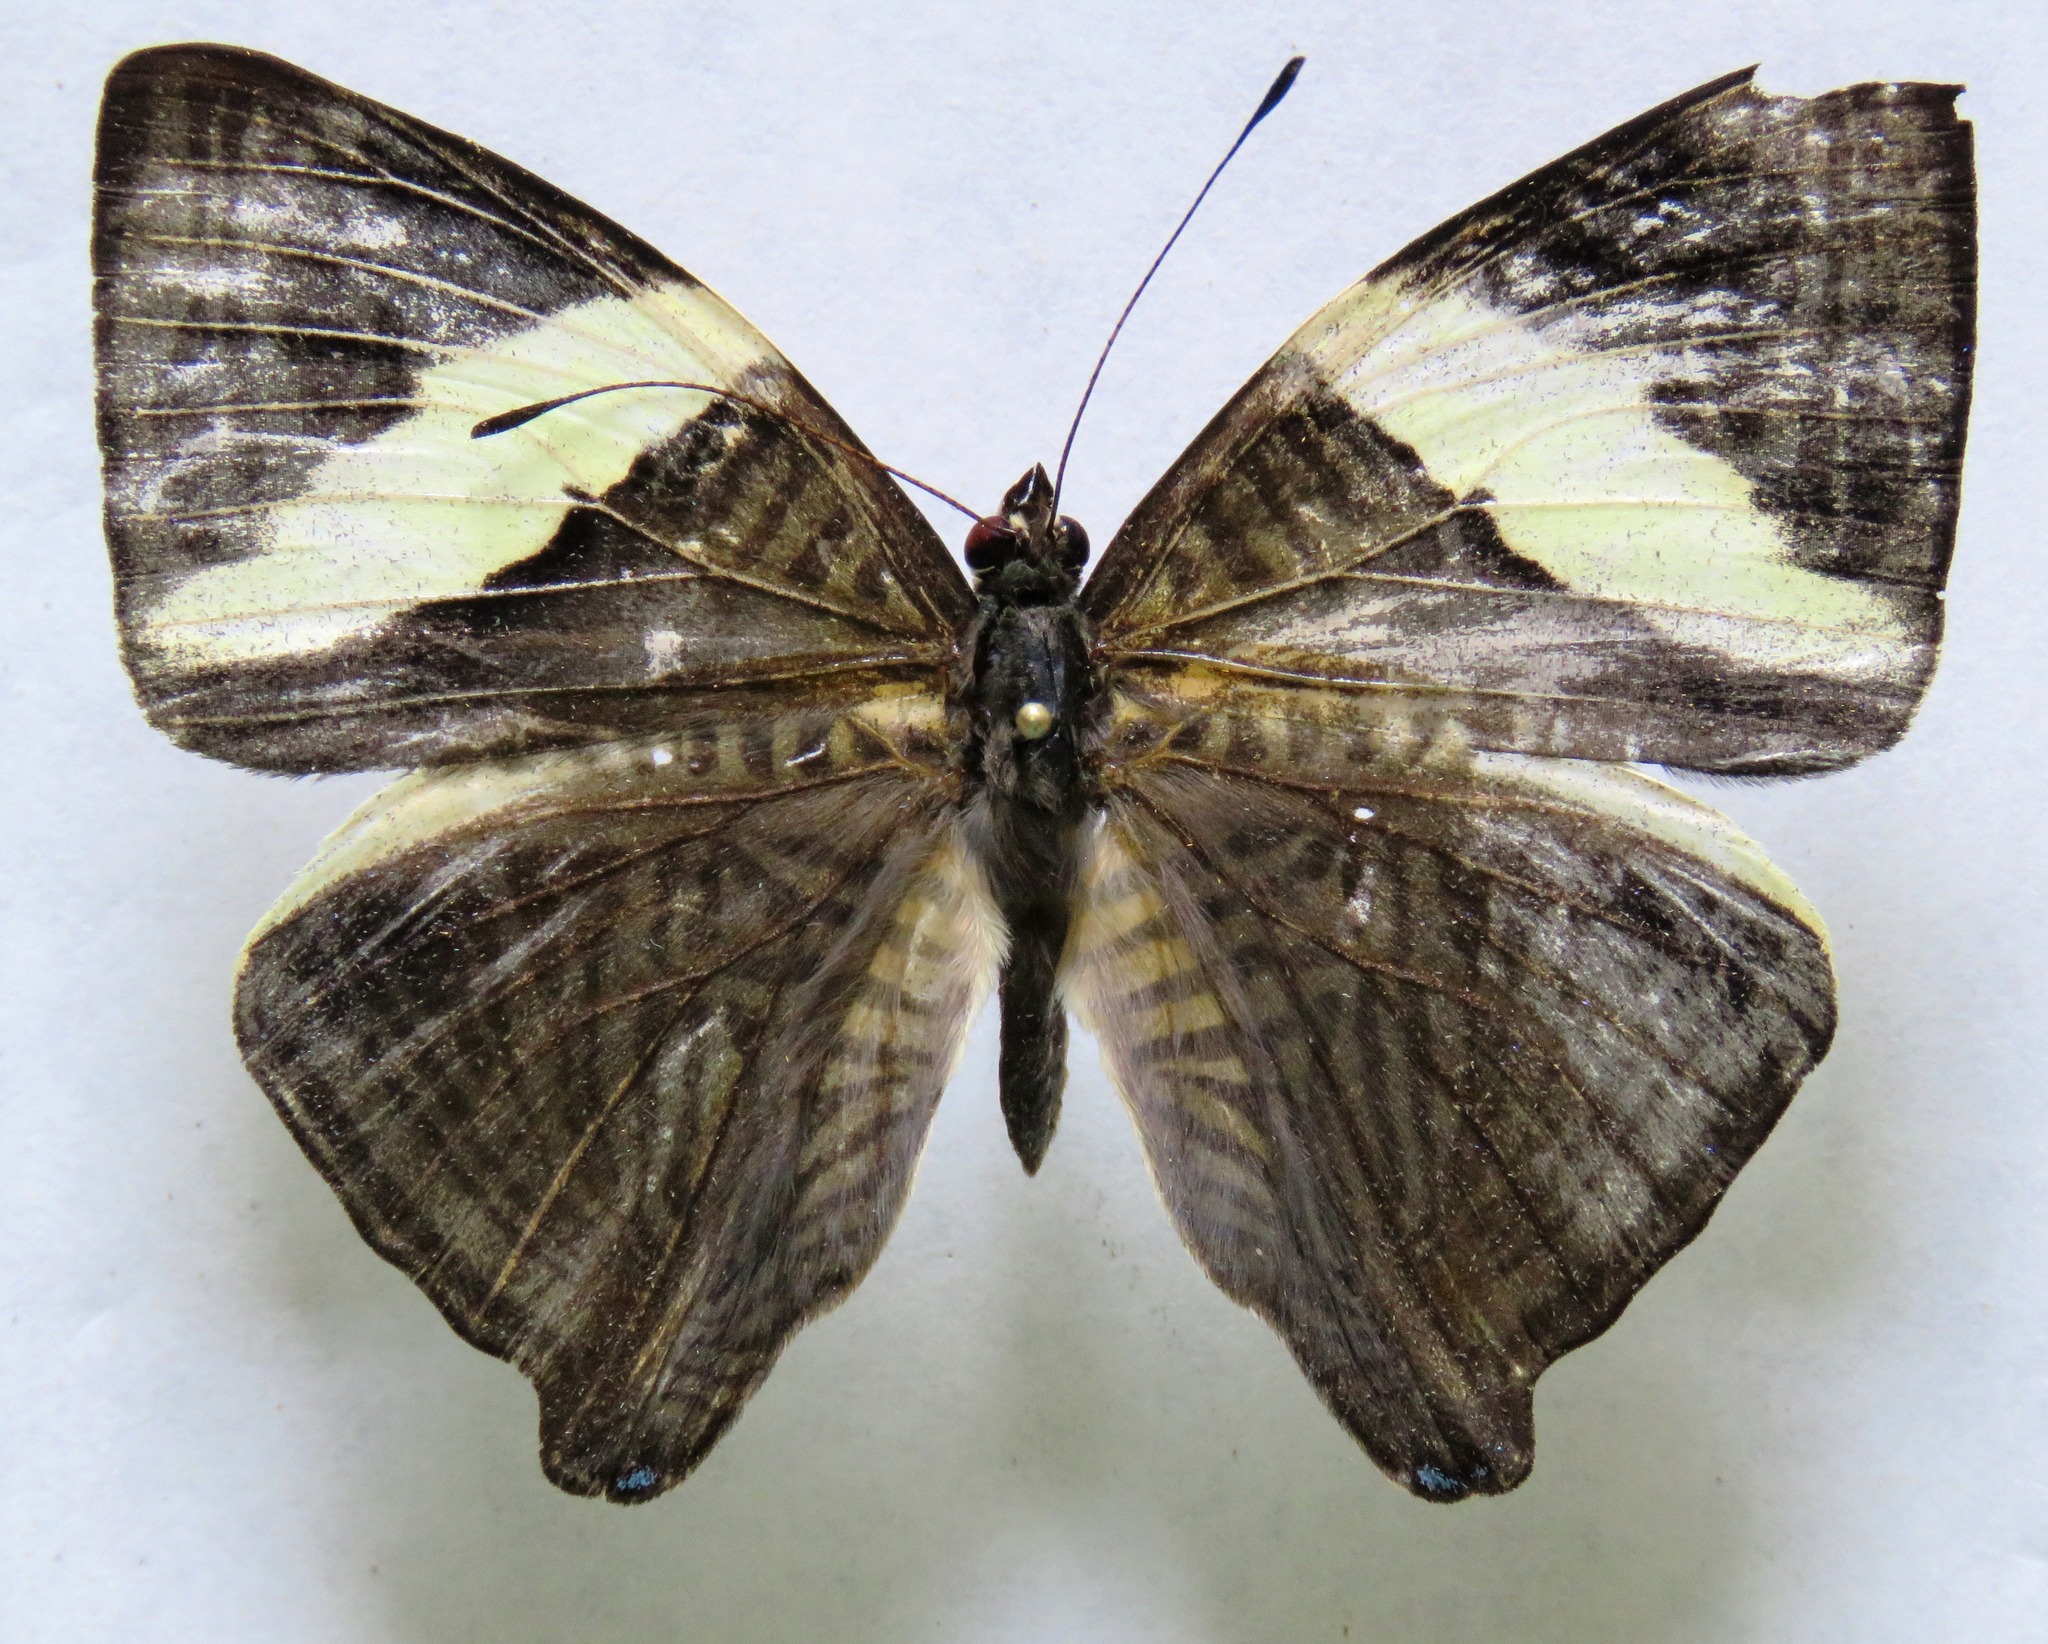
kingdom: Animalia
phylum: Arthropoda
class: Insecta
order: Lepidoptera
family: Nymphalidae
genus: Colobura
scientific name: Colobura dirce
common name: Dirce beauty
